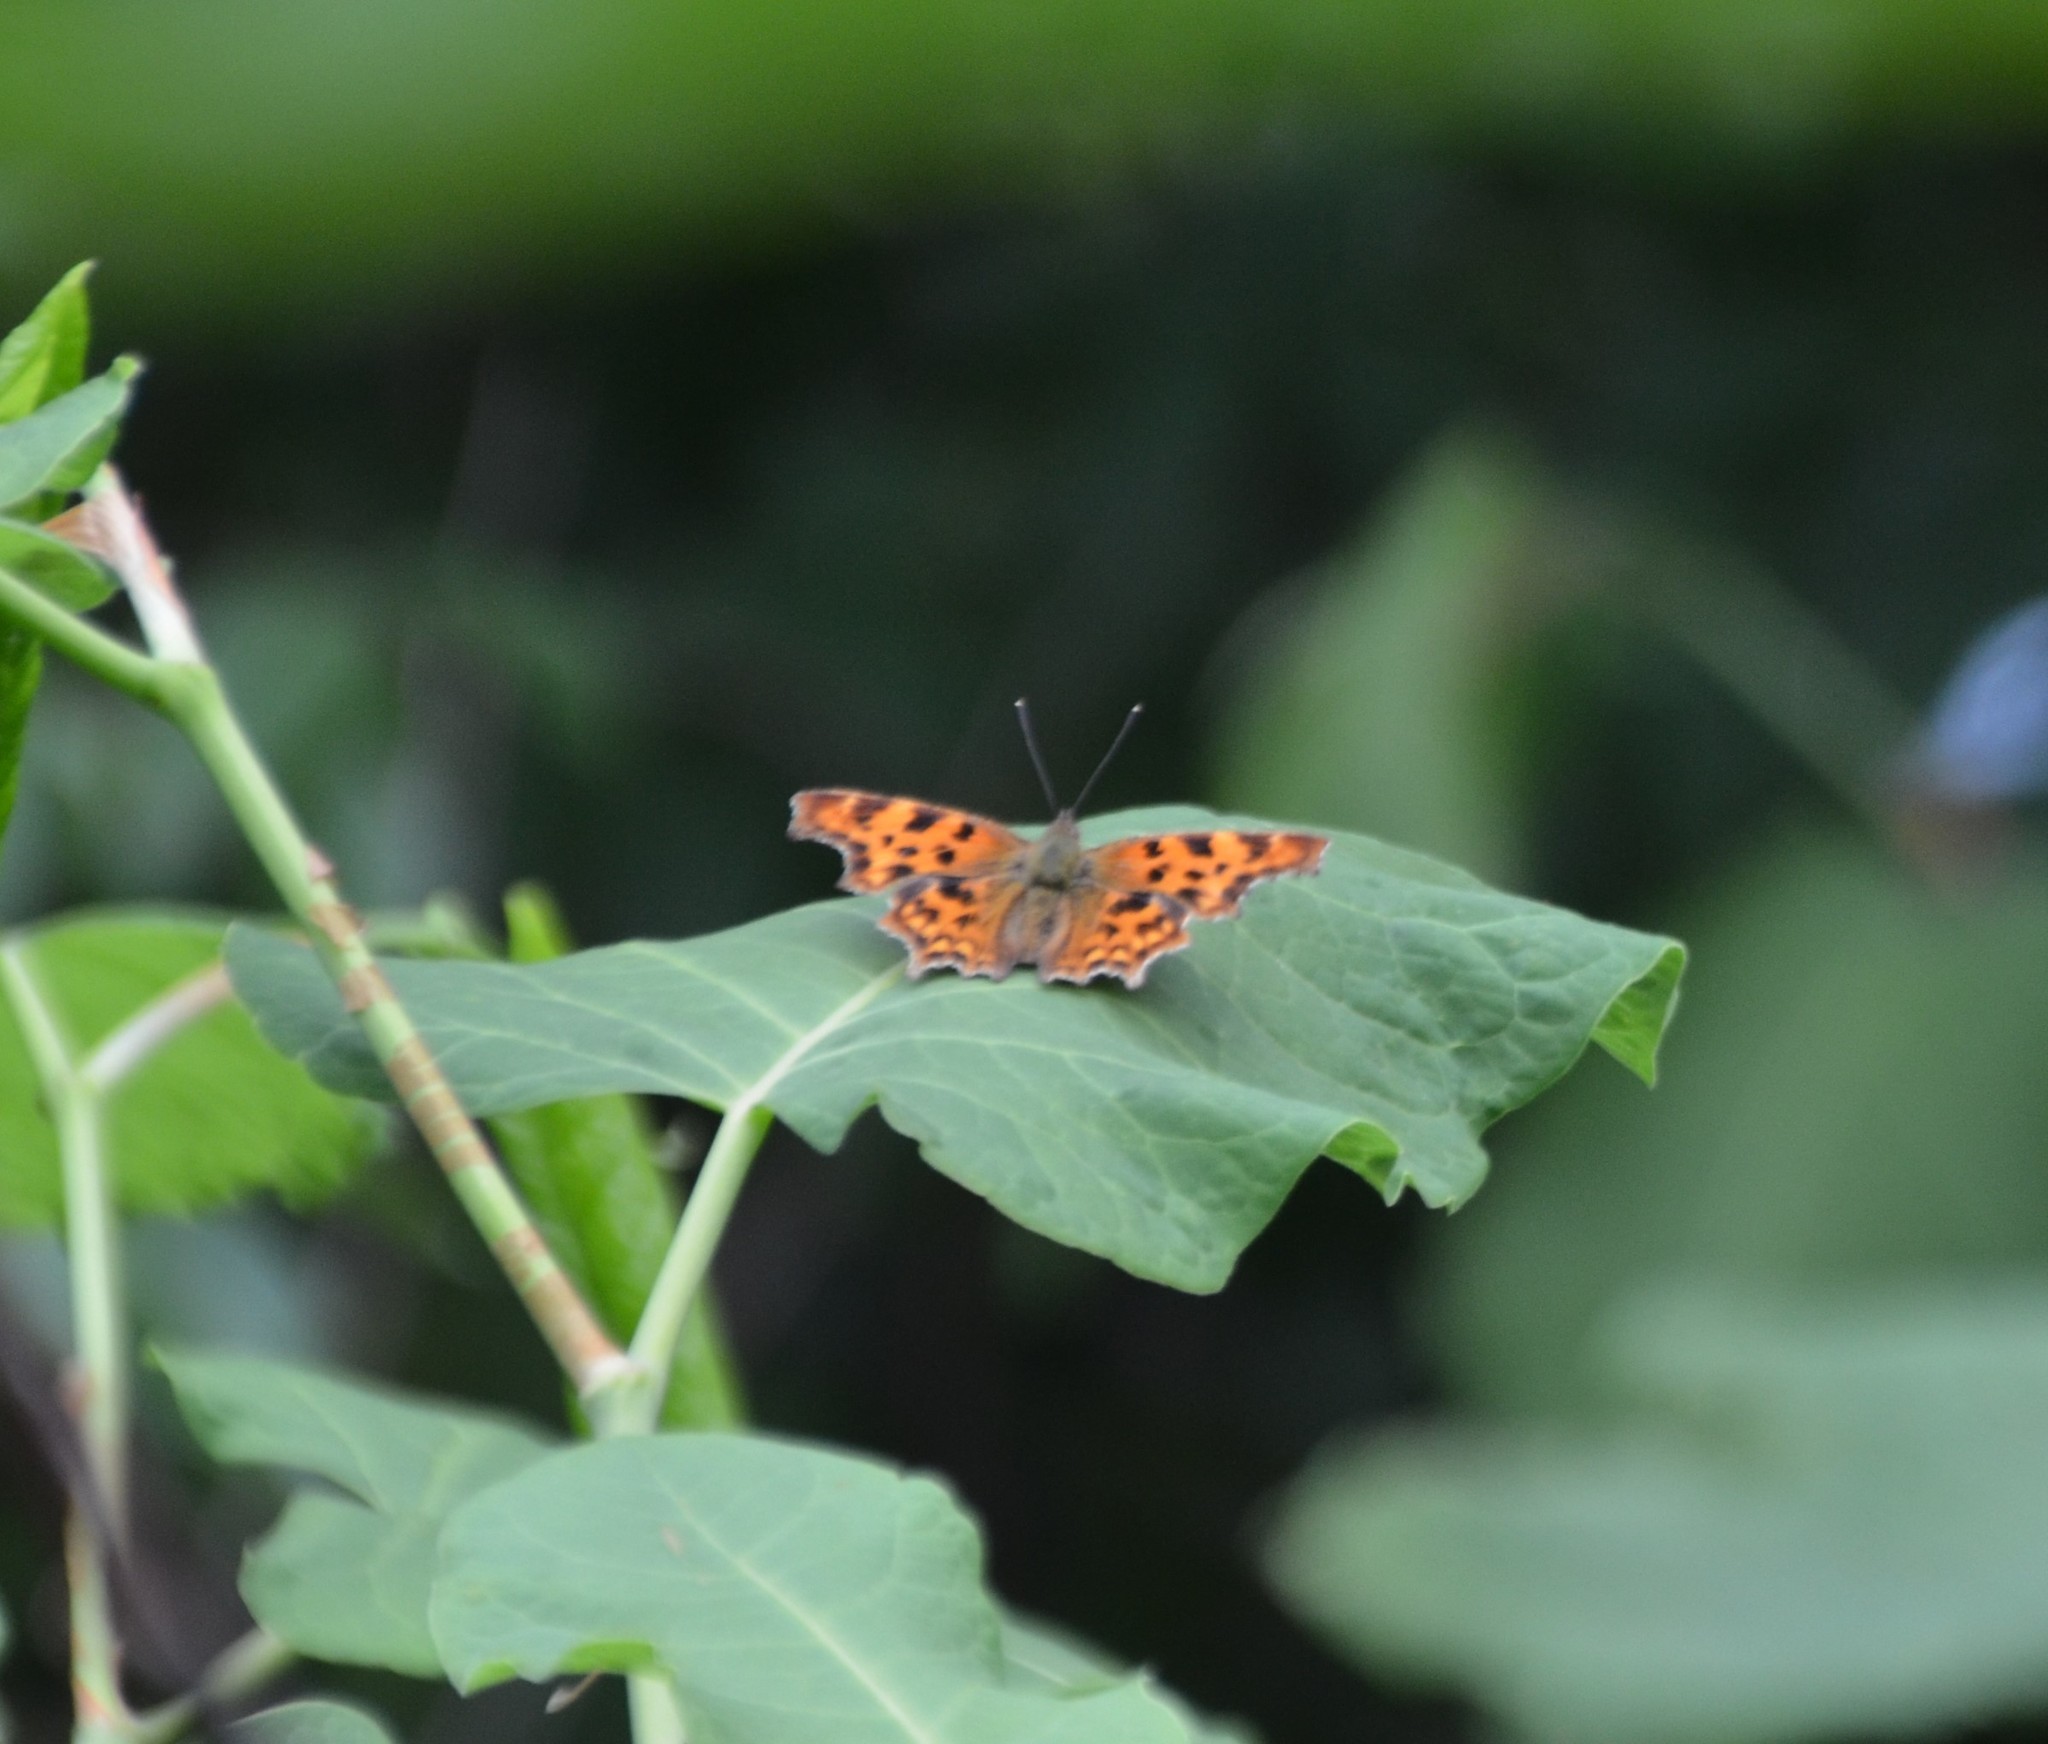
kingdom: Animalia
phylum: Arthropoda
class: Insecta
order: Lepidoptera
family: Nymphalidae
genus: Polygonia
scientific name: Polygonia c-album
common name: Comma
